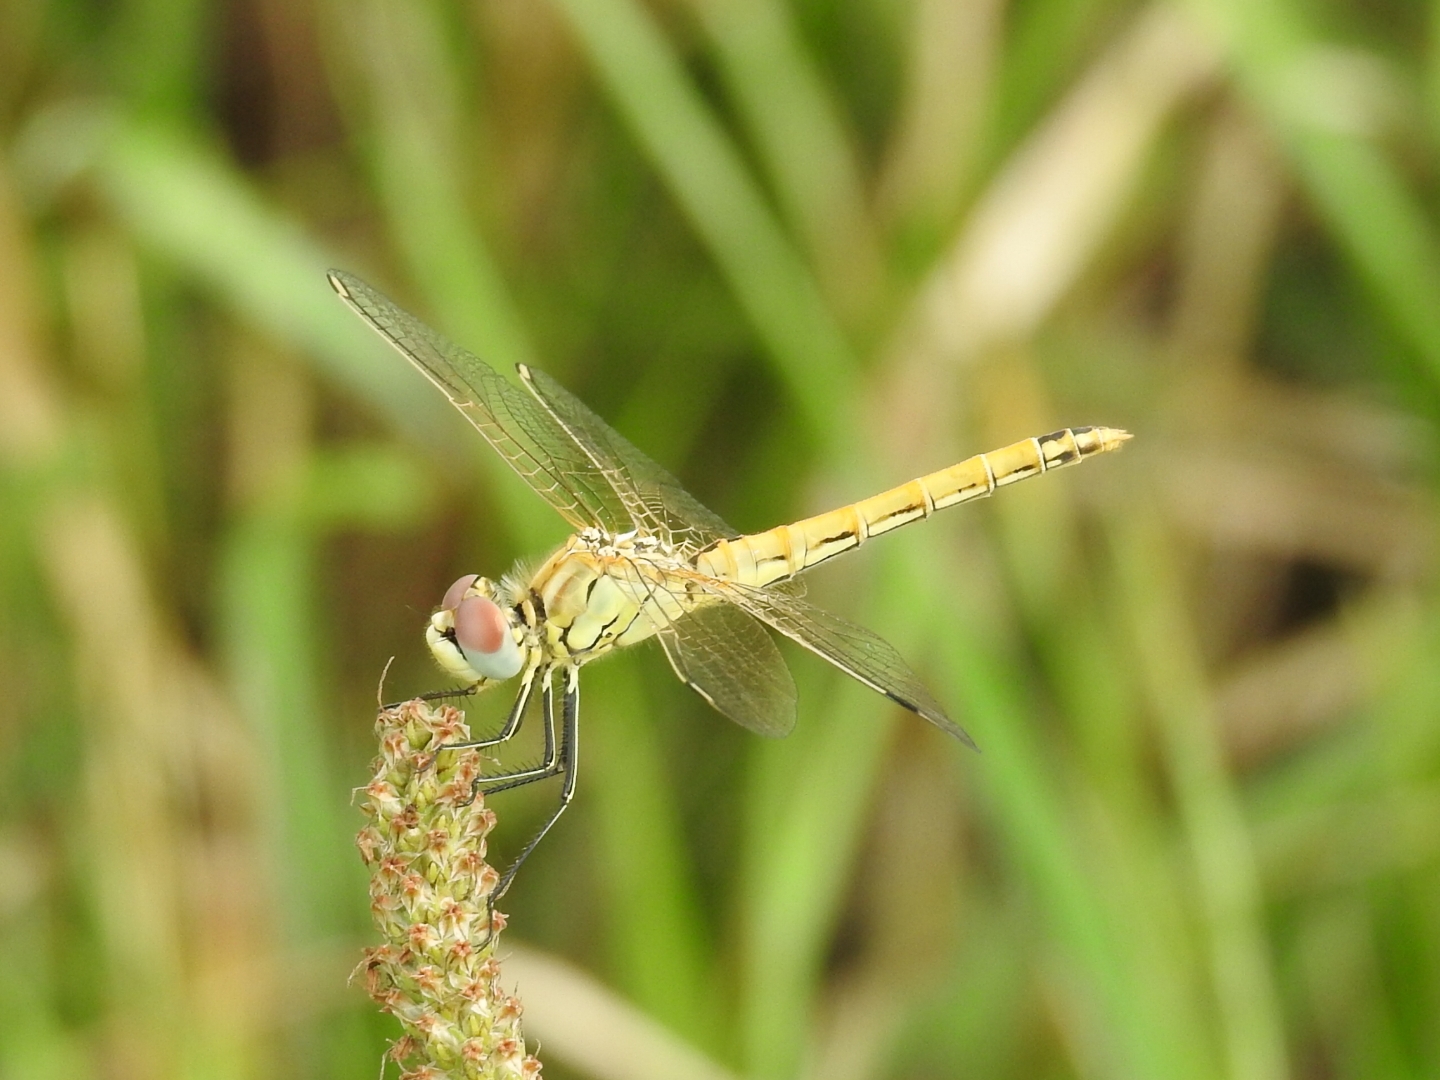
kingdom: Animalia
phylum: Arthropoda
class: Insecta
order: Odonata
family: Libellulidae
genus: Sympetrum
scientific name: Sympetrum fonscolombii
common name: Red-veined darter
